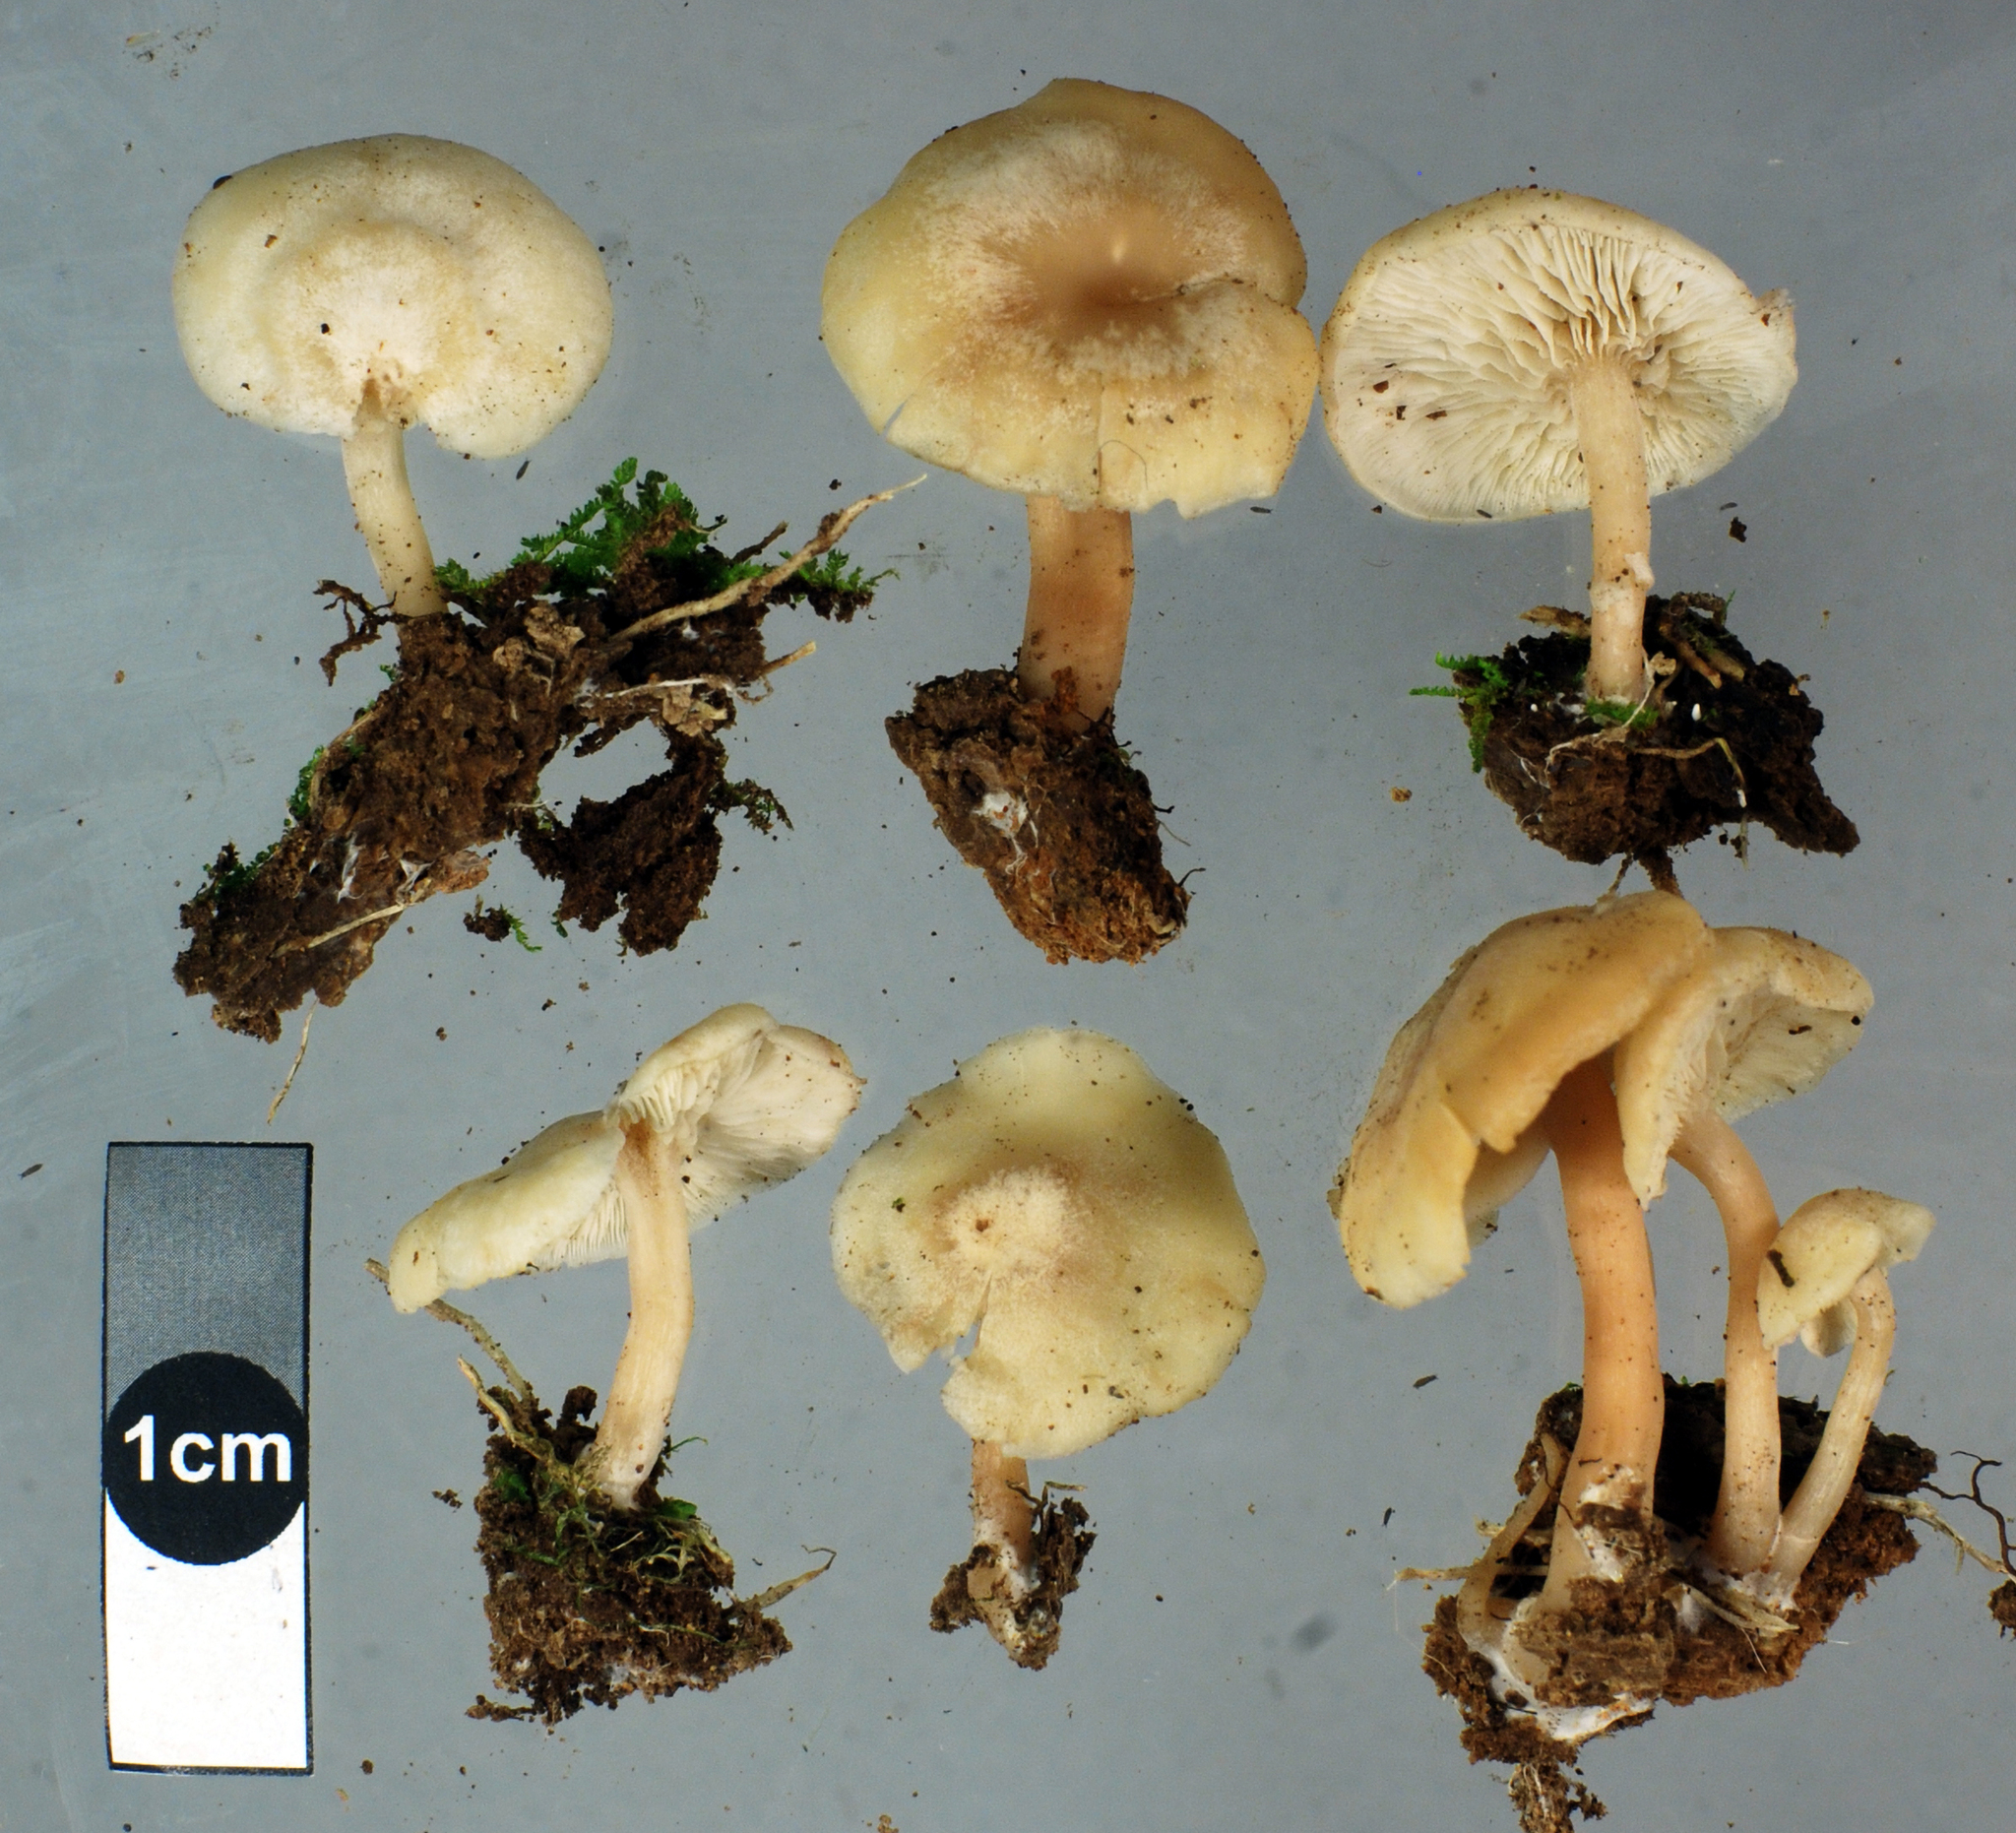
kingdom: Fungi
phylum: Basidiomycota
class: Agaricomycetes
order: Agaricales
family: Callistosporiaceae
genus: Pleurocollybia
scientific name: Pleurocollybia cremea
